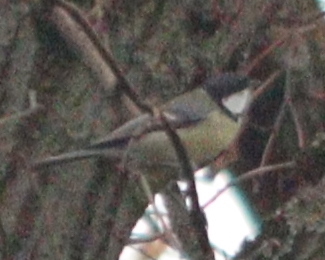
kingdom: Animalia
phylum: Chordata
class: Aves
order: Passeriformes
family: Paridae
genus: Parus
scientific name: Parus major
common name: Great tit
